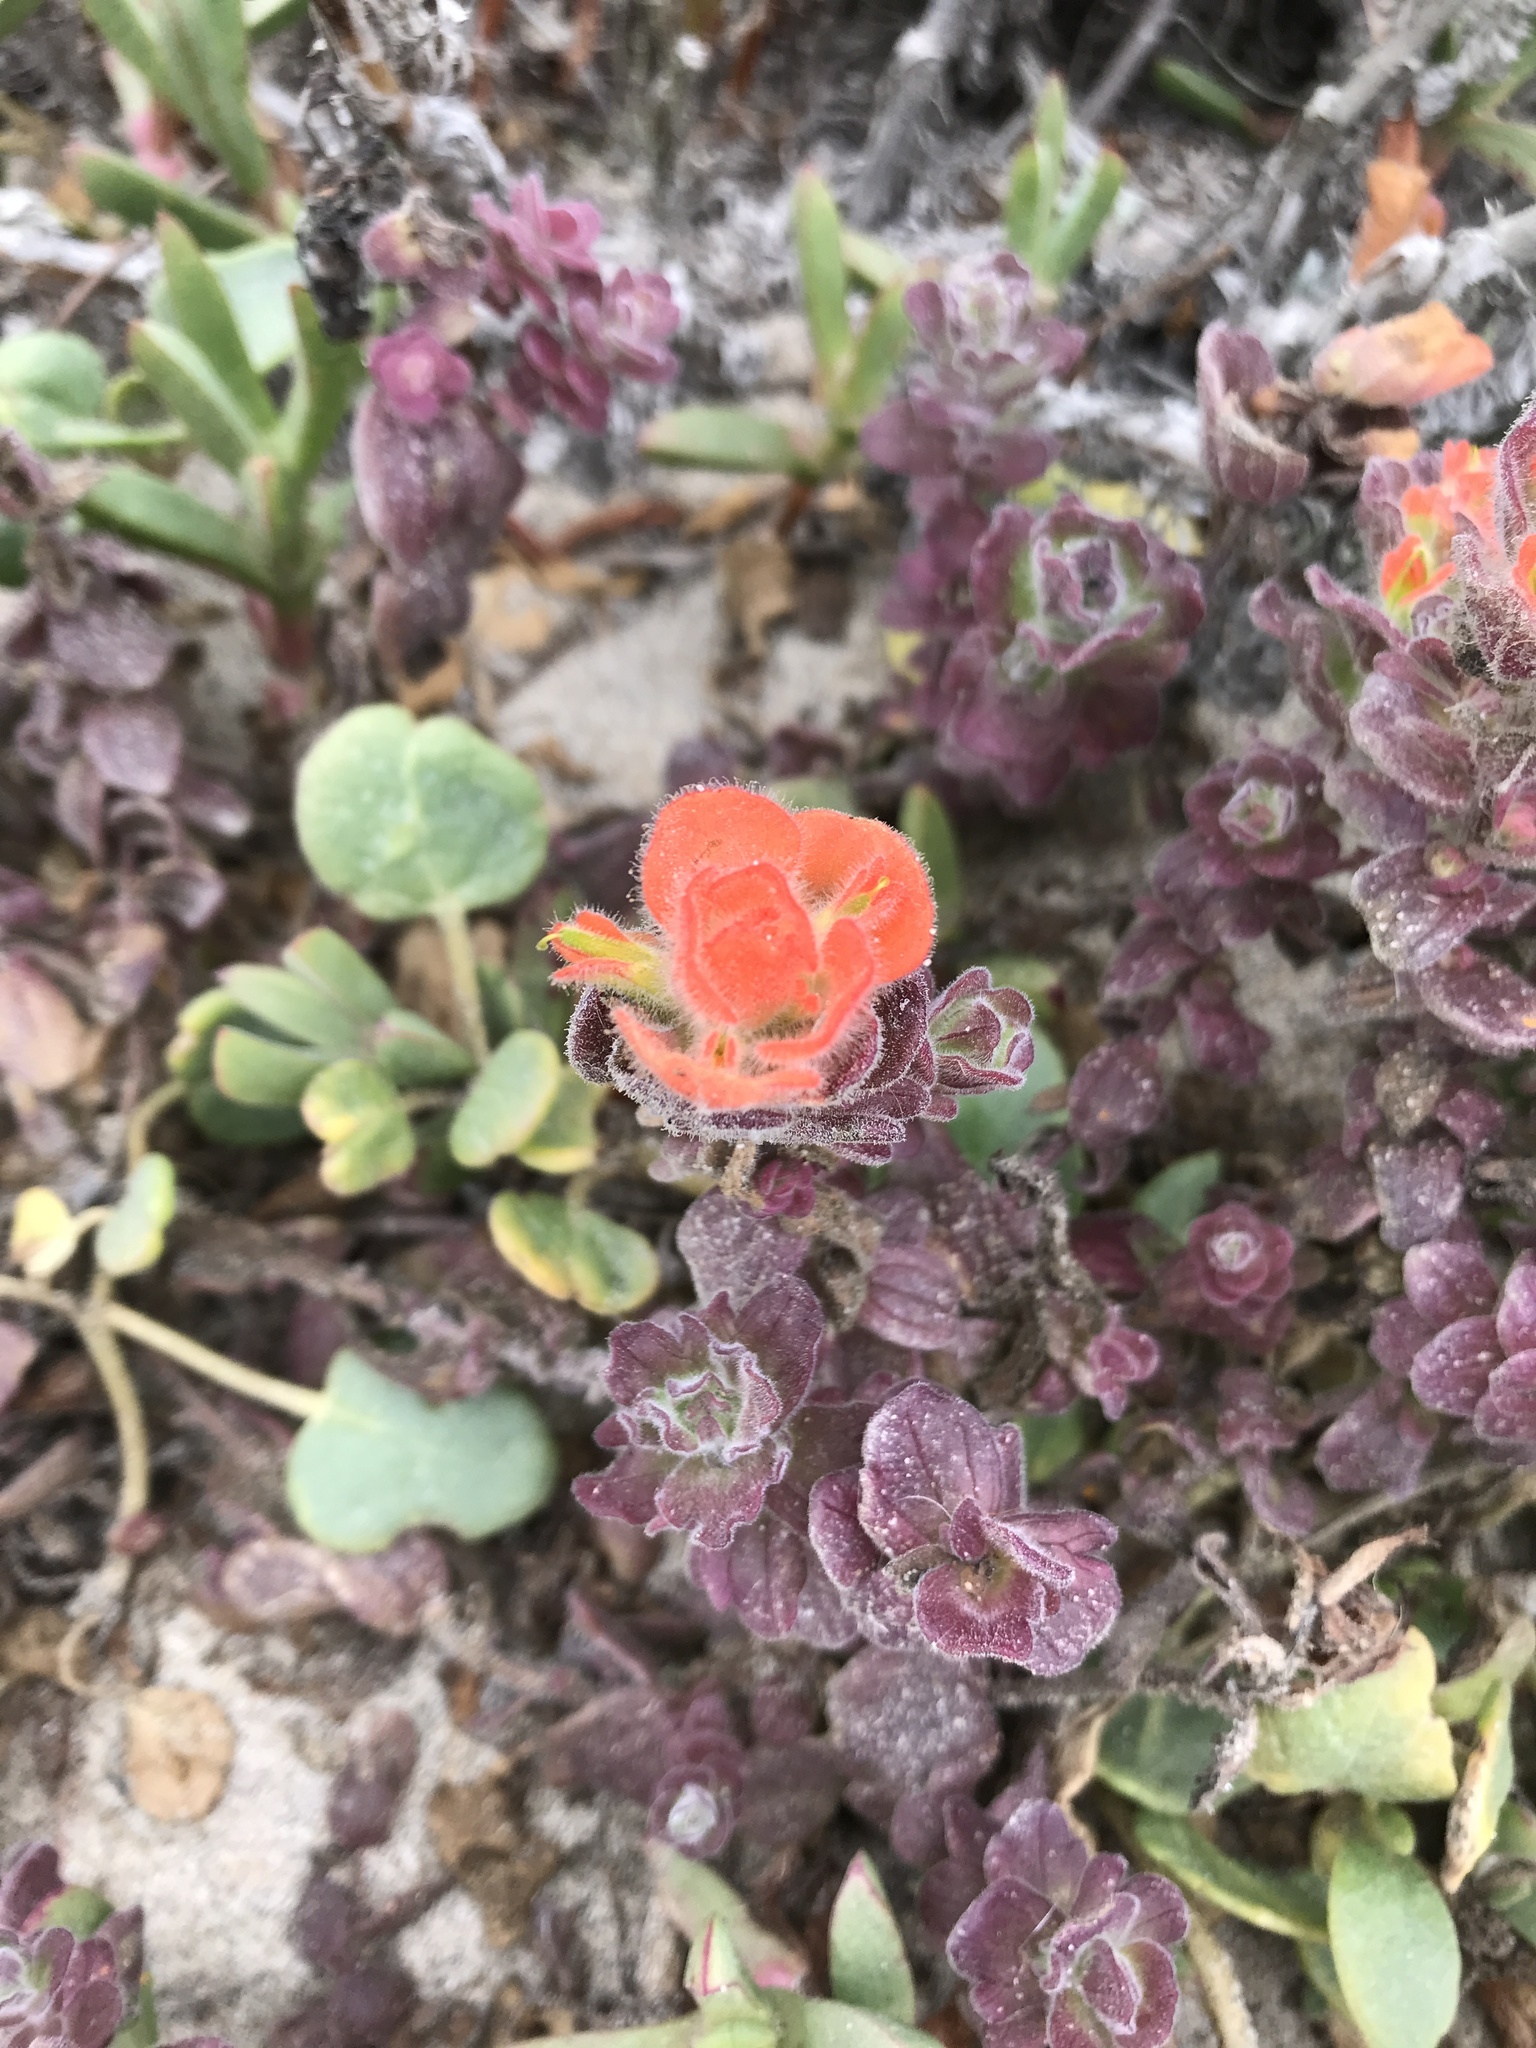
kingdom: Plantae
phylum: Tracheophyta
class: Magnoliopsida
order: Lamiales
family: Orobanchaceae
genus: Castilleja
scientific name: Castilleja latifolia
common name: Monterey indian paintbrush
